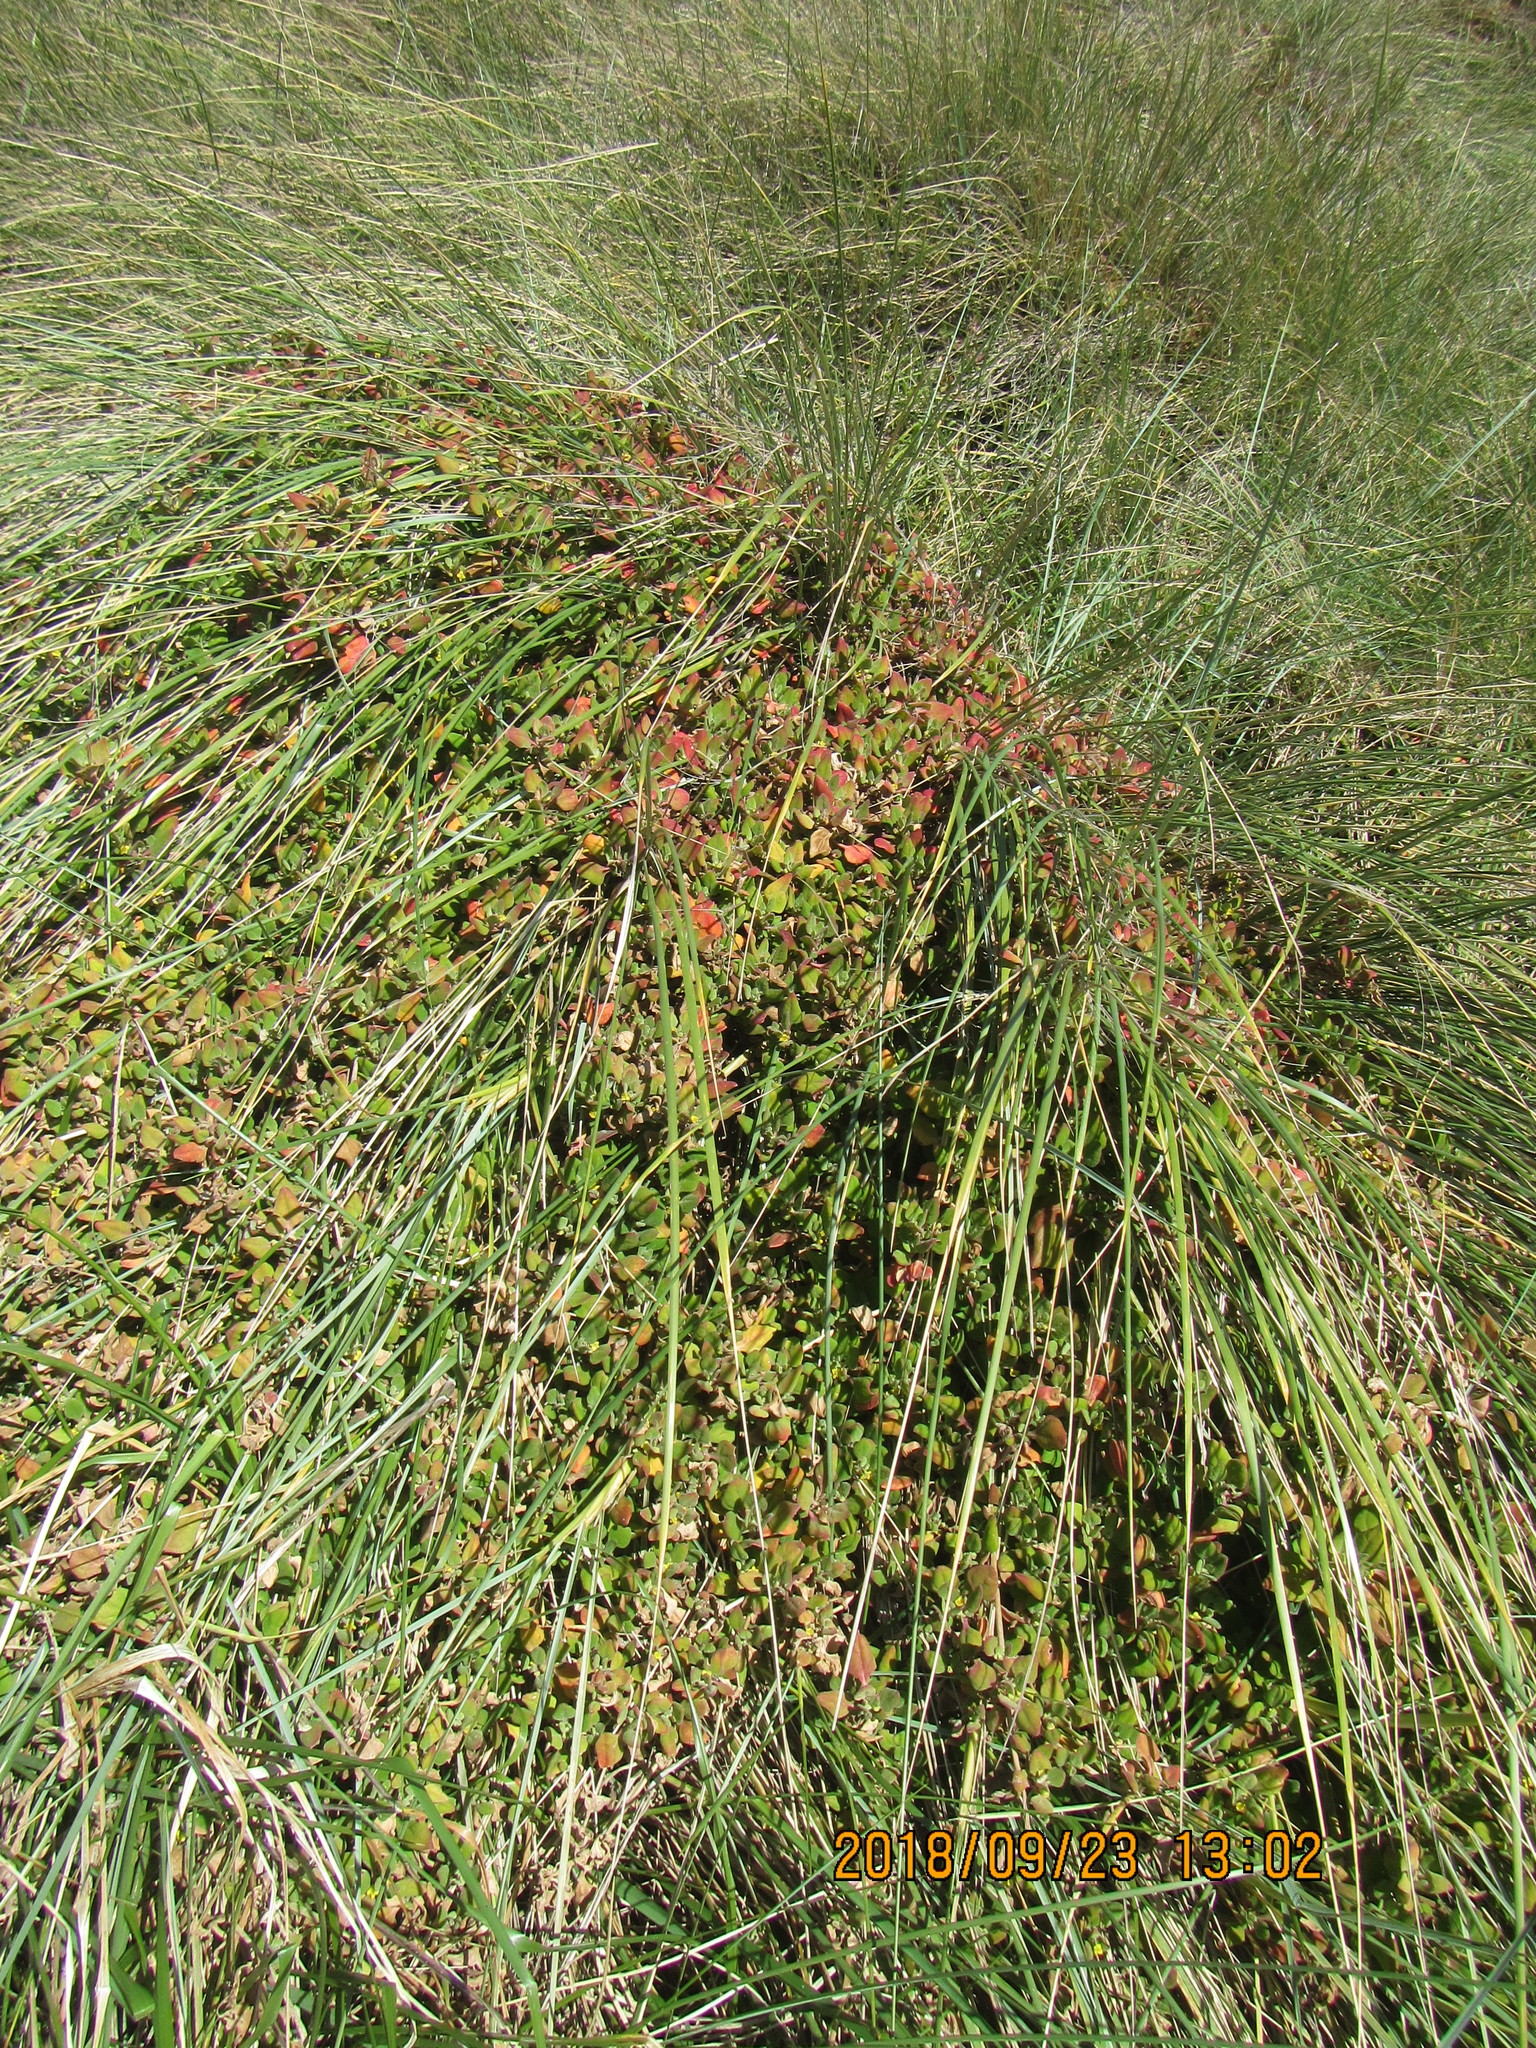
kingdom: Plantae
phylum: Tracheophyta
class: Magnoliopsida
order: Caryophyllales
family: Aizoaceae
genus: Tetragonia
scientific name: Tetragonia implexicoma
